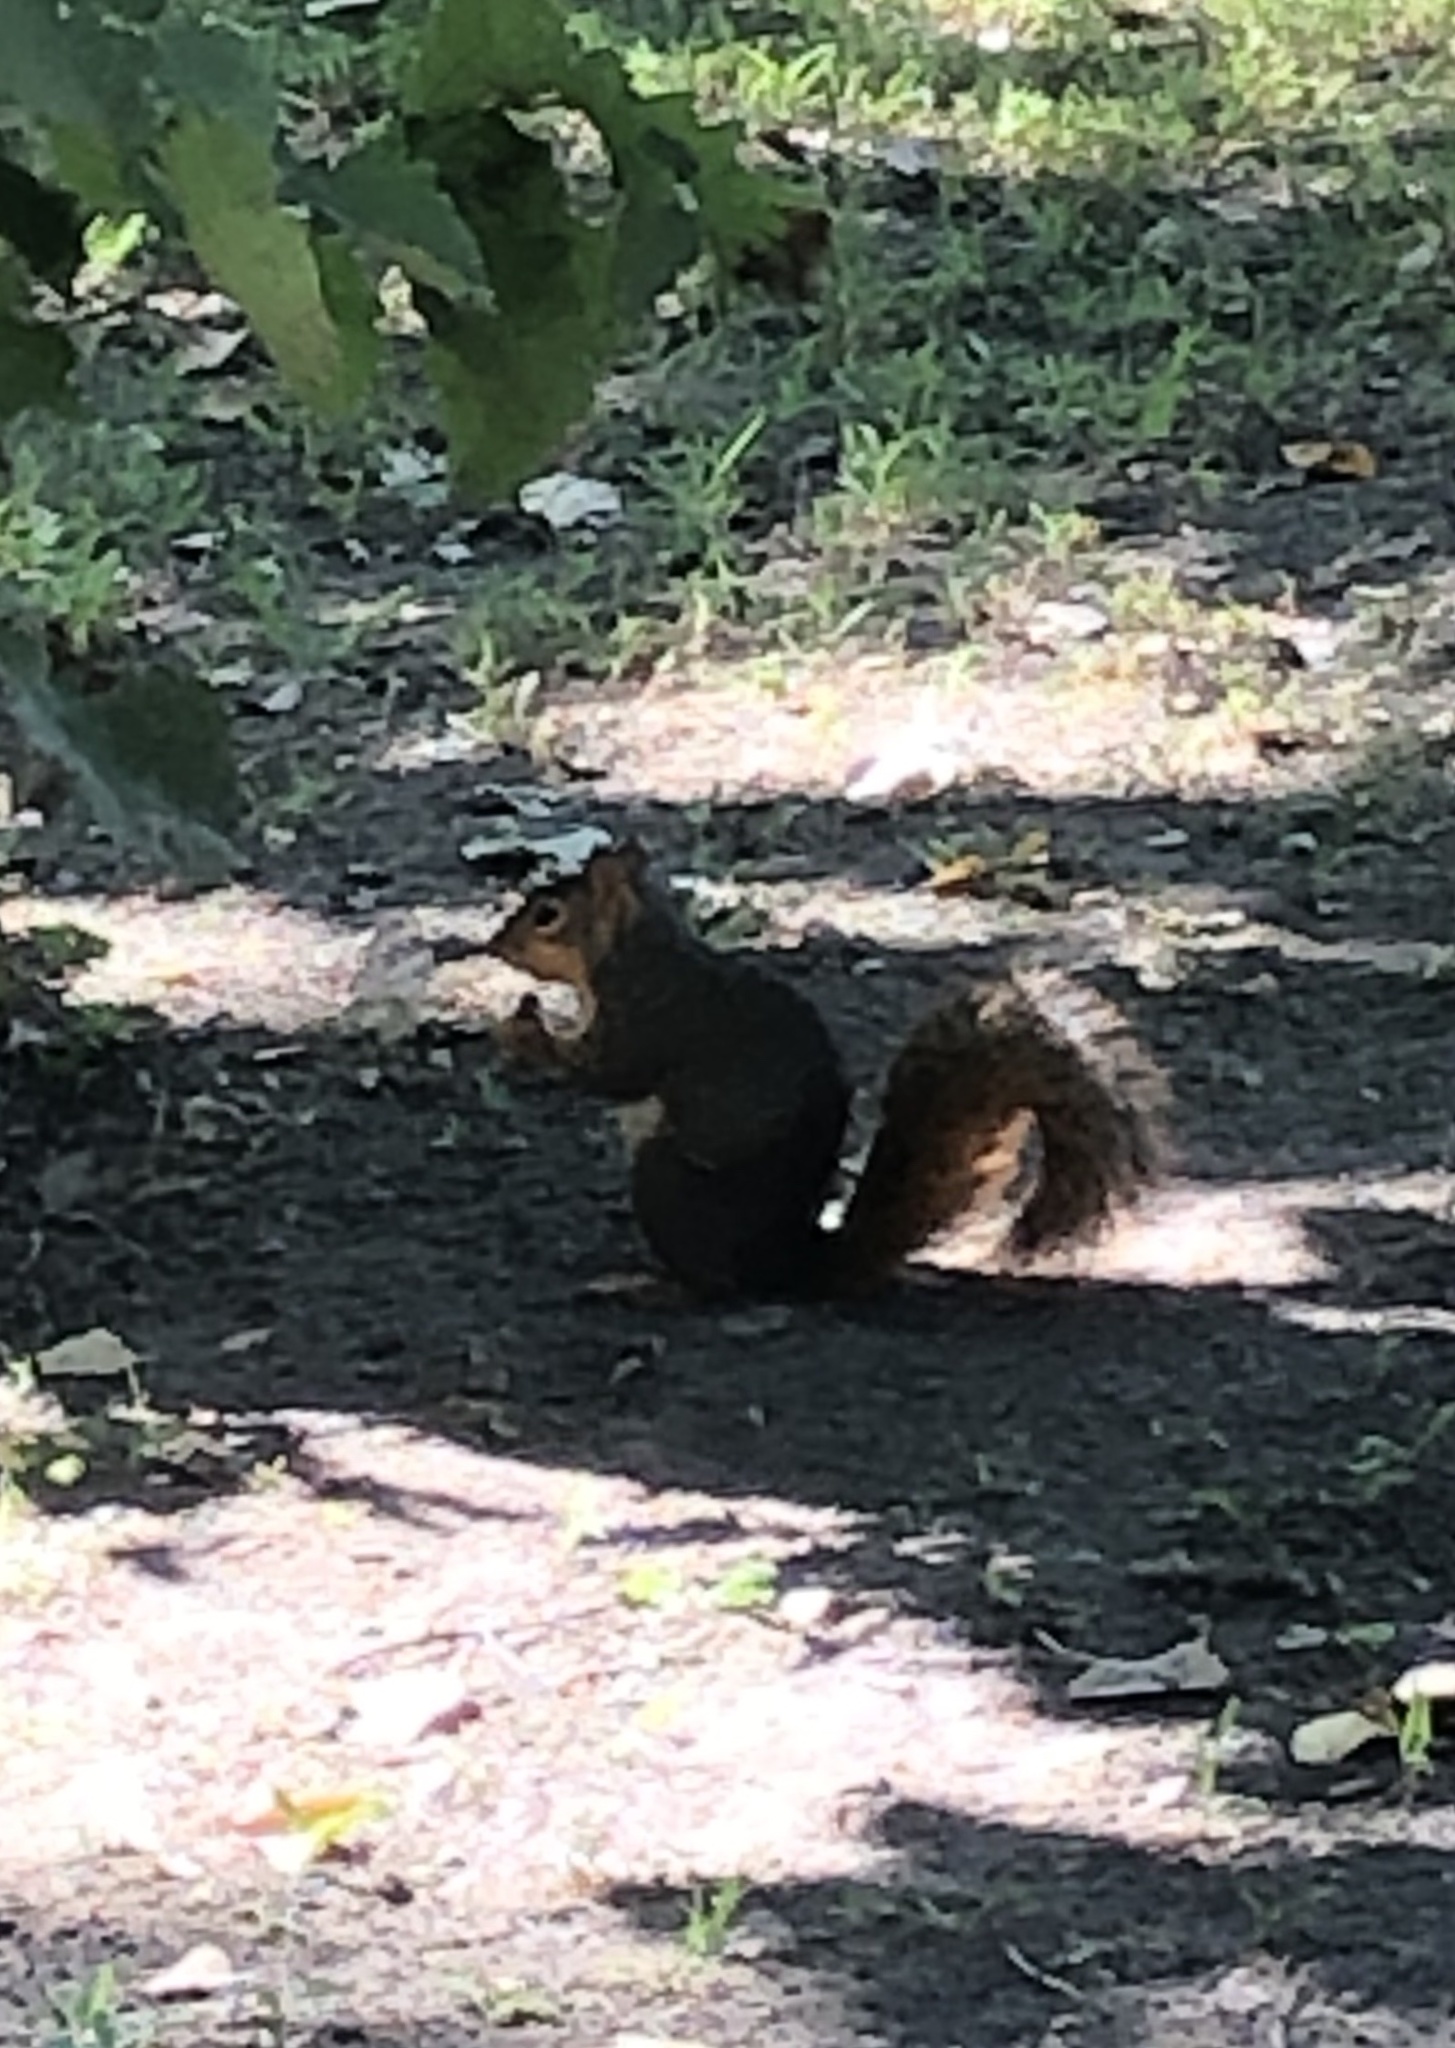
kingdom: Animalia
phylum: Chordata
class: Mammalia
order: Rodentia
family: Sciuridae
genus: Sciurus
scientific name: Sciurus niger
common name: Fox squirrel
